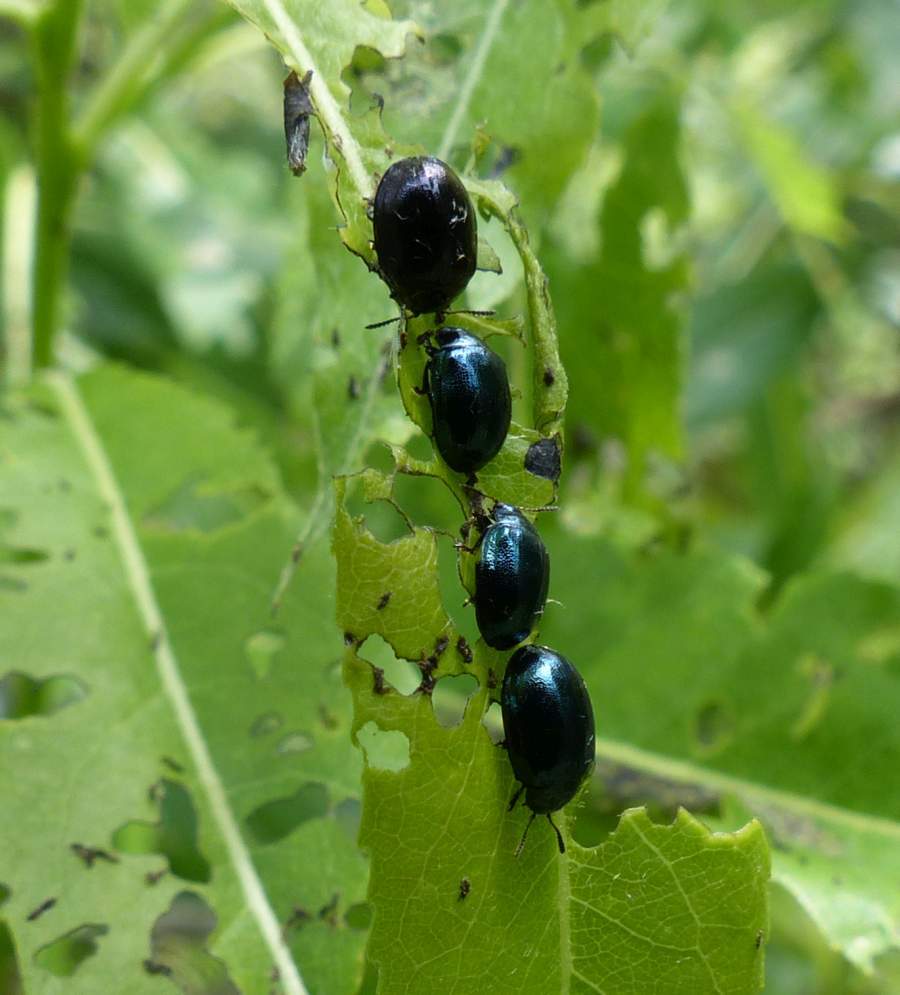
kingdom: Animalia
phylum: Arthropoda
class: Insecta
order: Coleoptera
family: Chrysomelidae
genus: Plagiodera
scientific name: Plagiodera versicolora
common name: Imported willow leaf beetle
